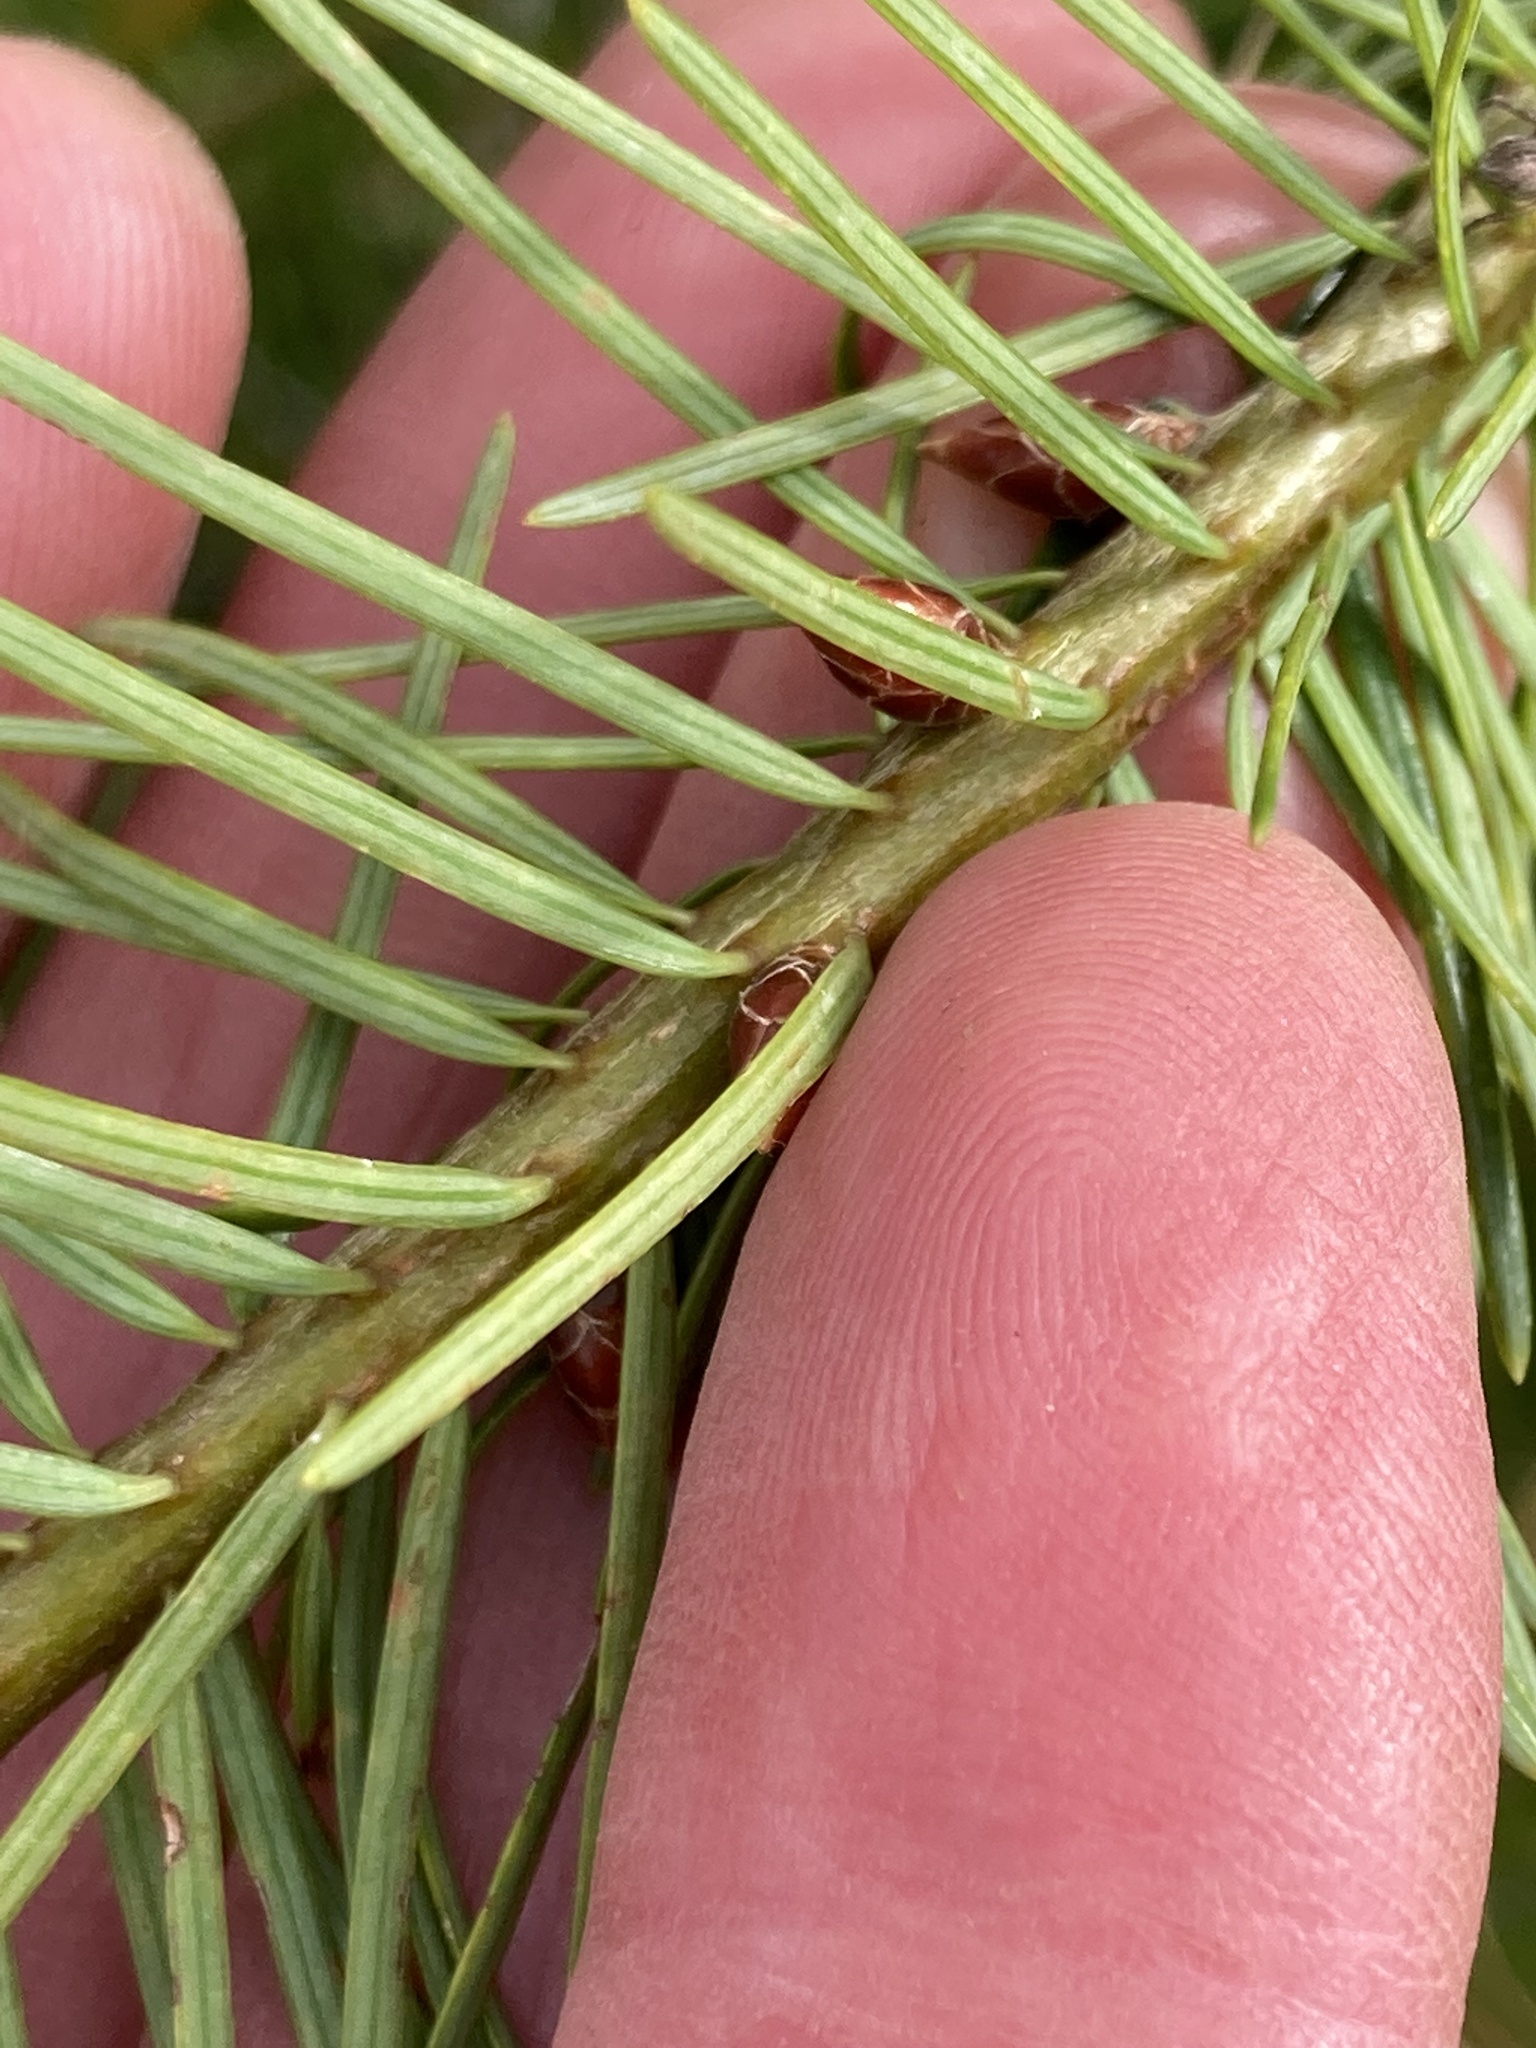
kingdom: Plantae
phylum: Tracheophyta
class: Pinopsida
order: Pinales
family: Pinaceae
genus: Pseudotsuga
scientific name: Pseudotsuga menziesii
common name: Douglas fir
